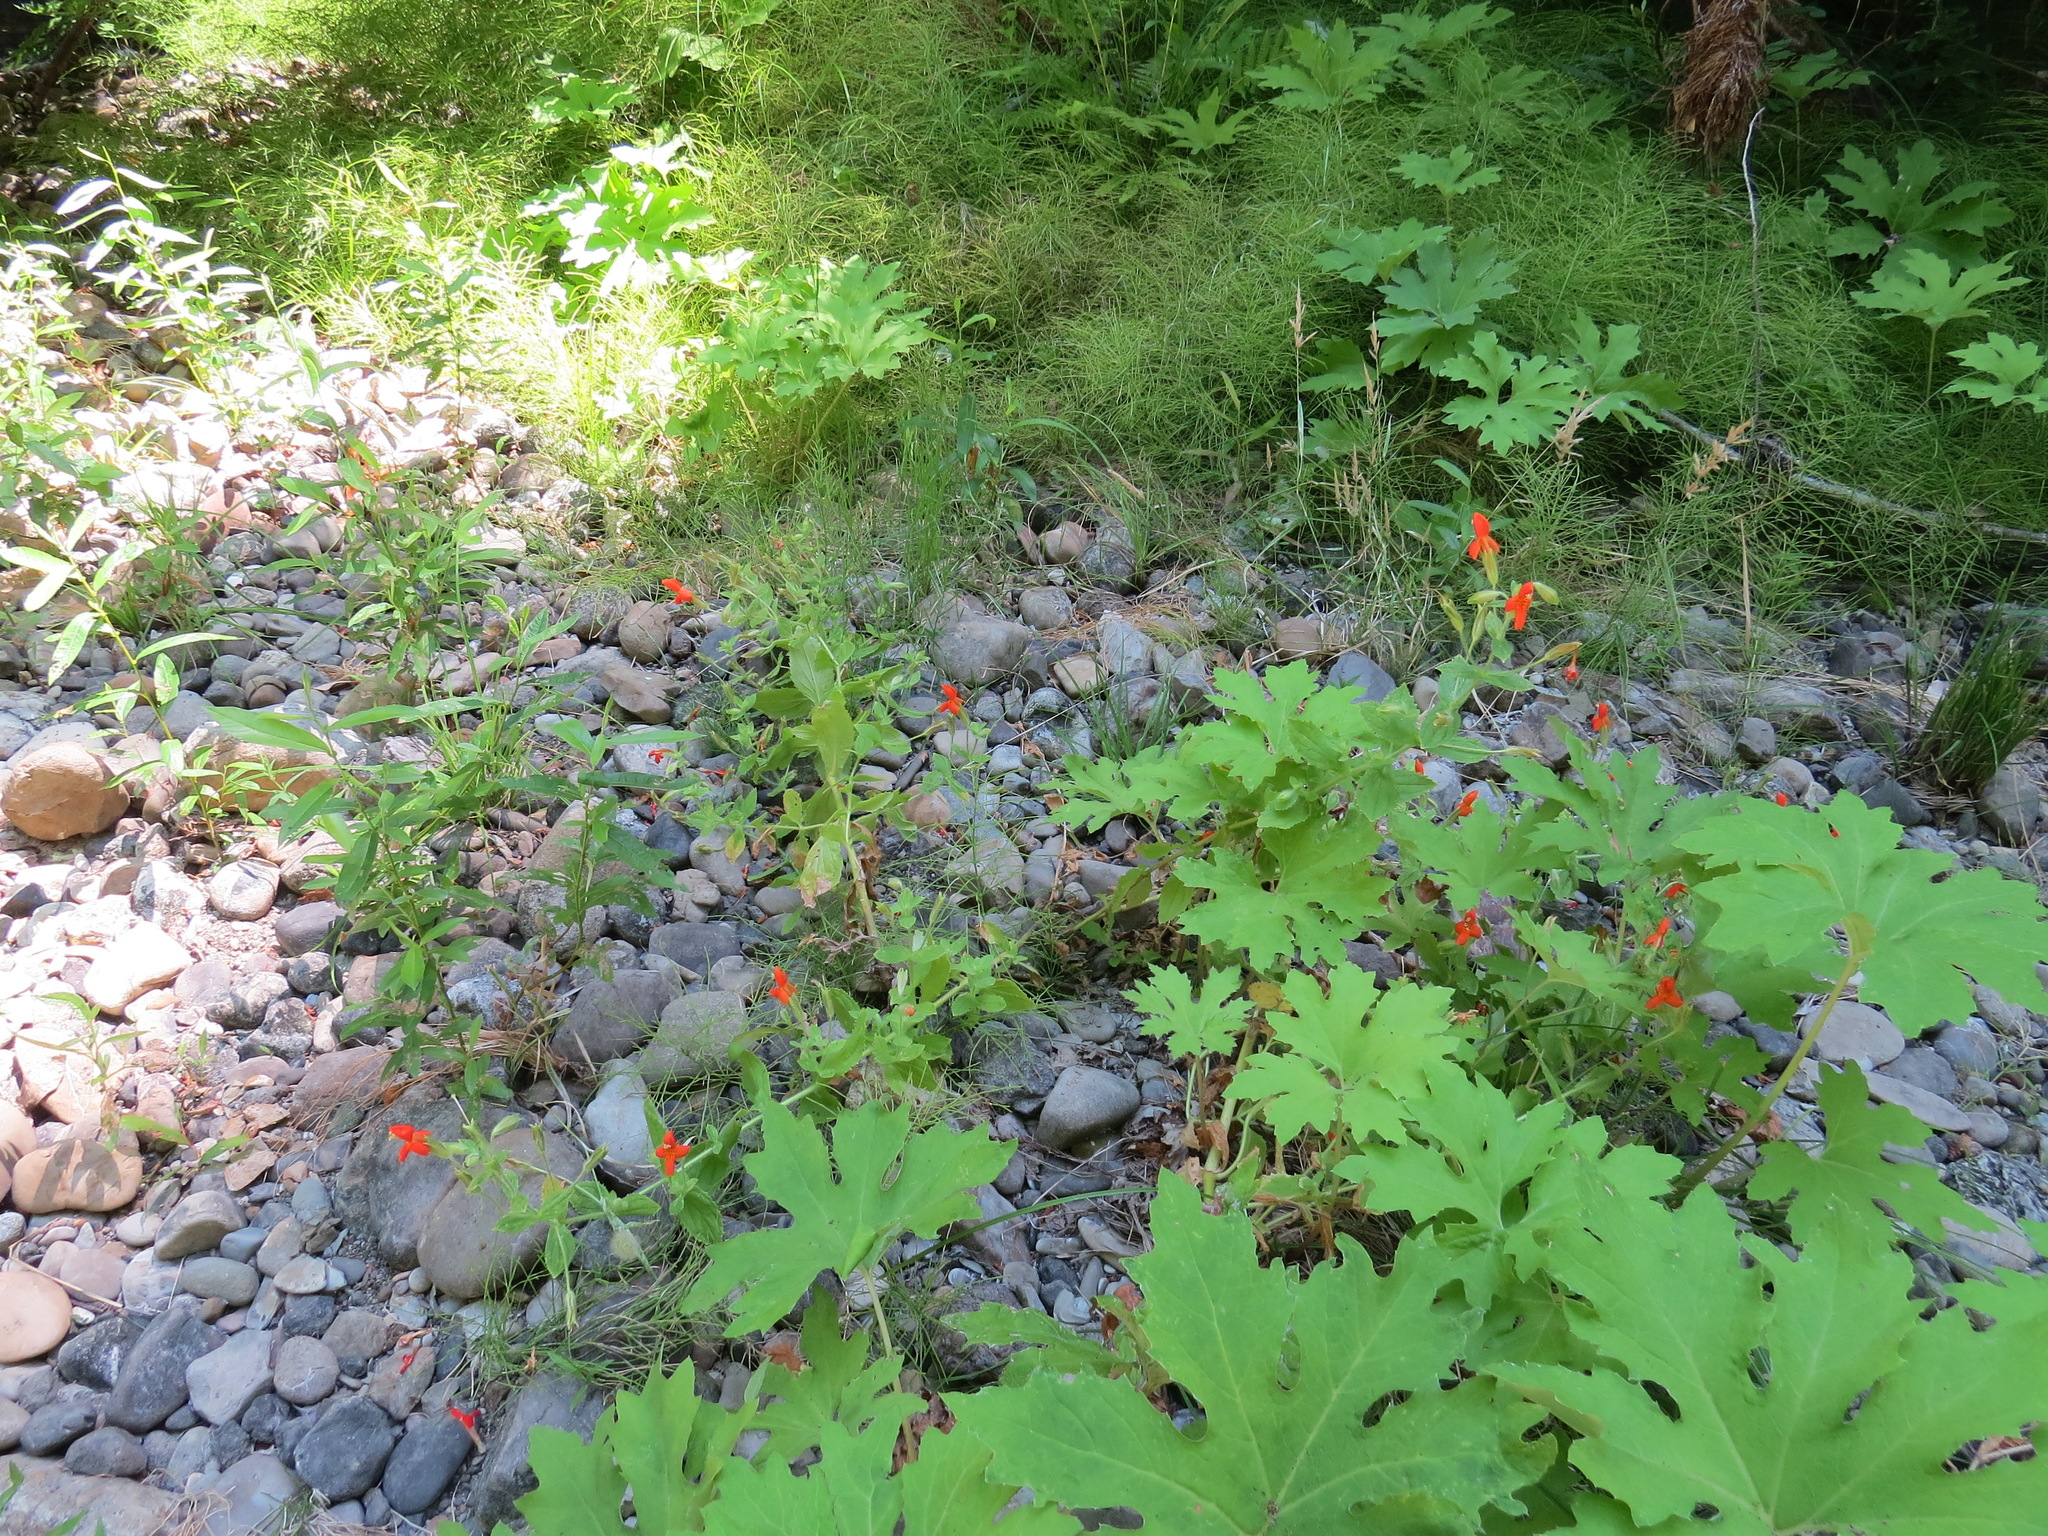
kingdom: Plantae
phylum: Tracheophyta
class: Magnoliopsida
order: Lamiales
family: Phrymaceae
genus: Erythranthe
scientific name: Erythranthe cardinalis
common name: Scarlet monkey-flower
